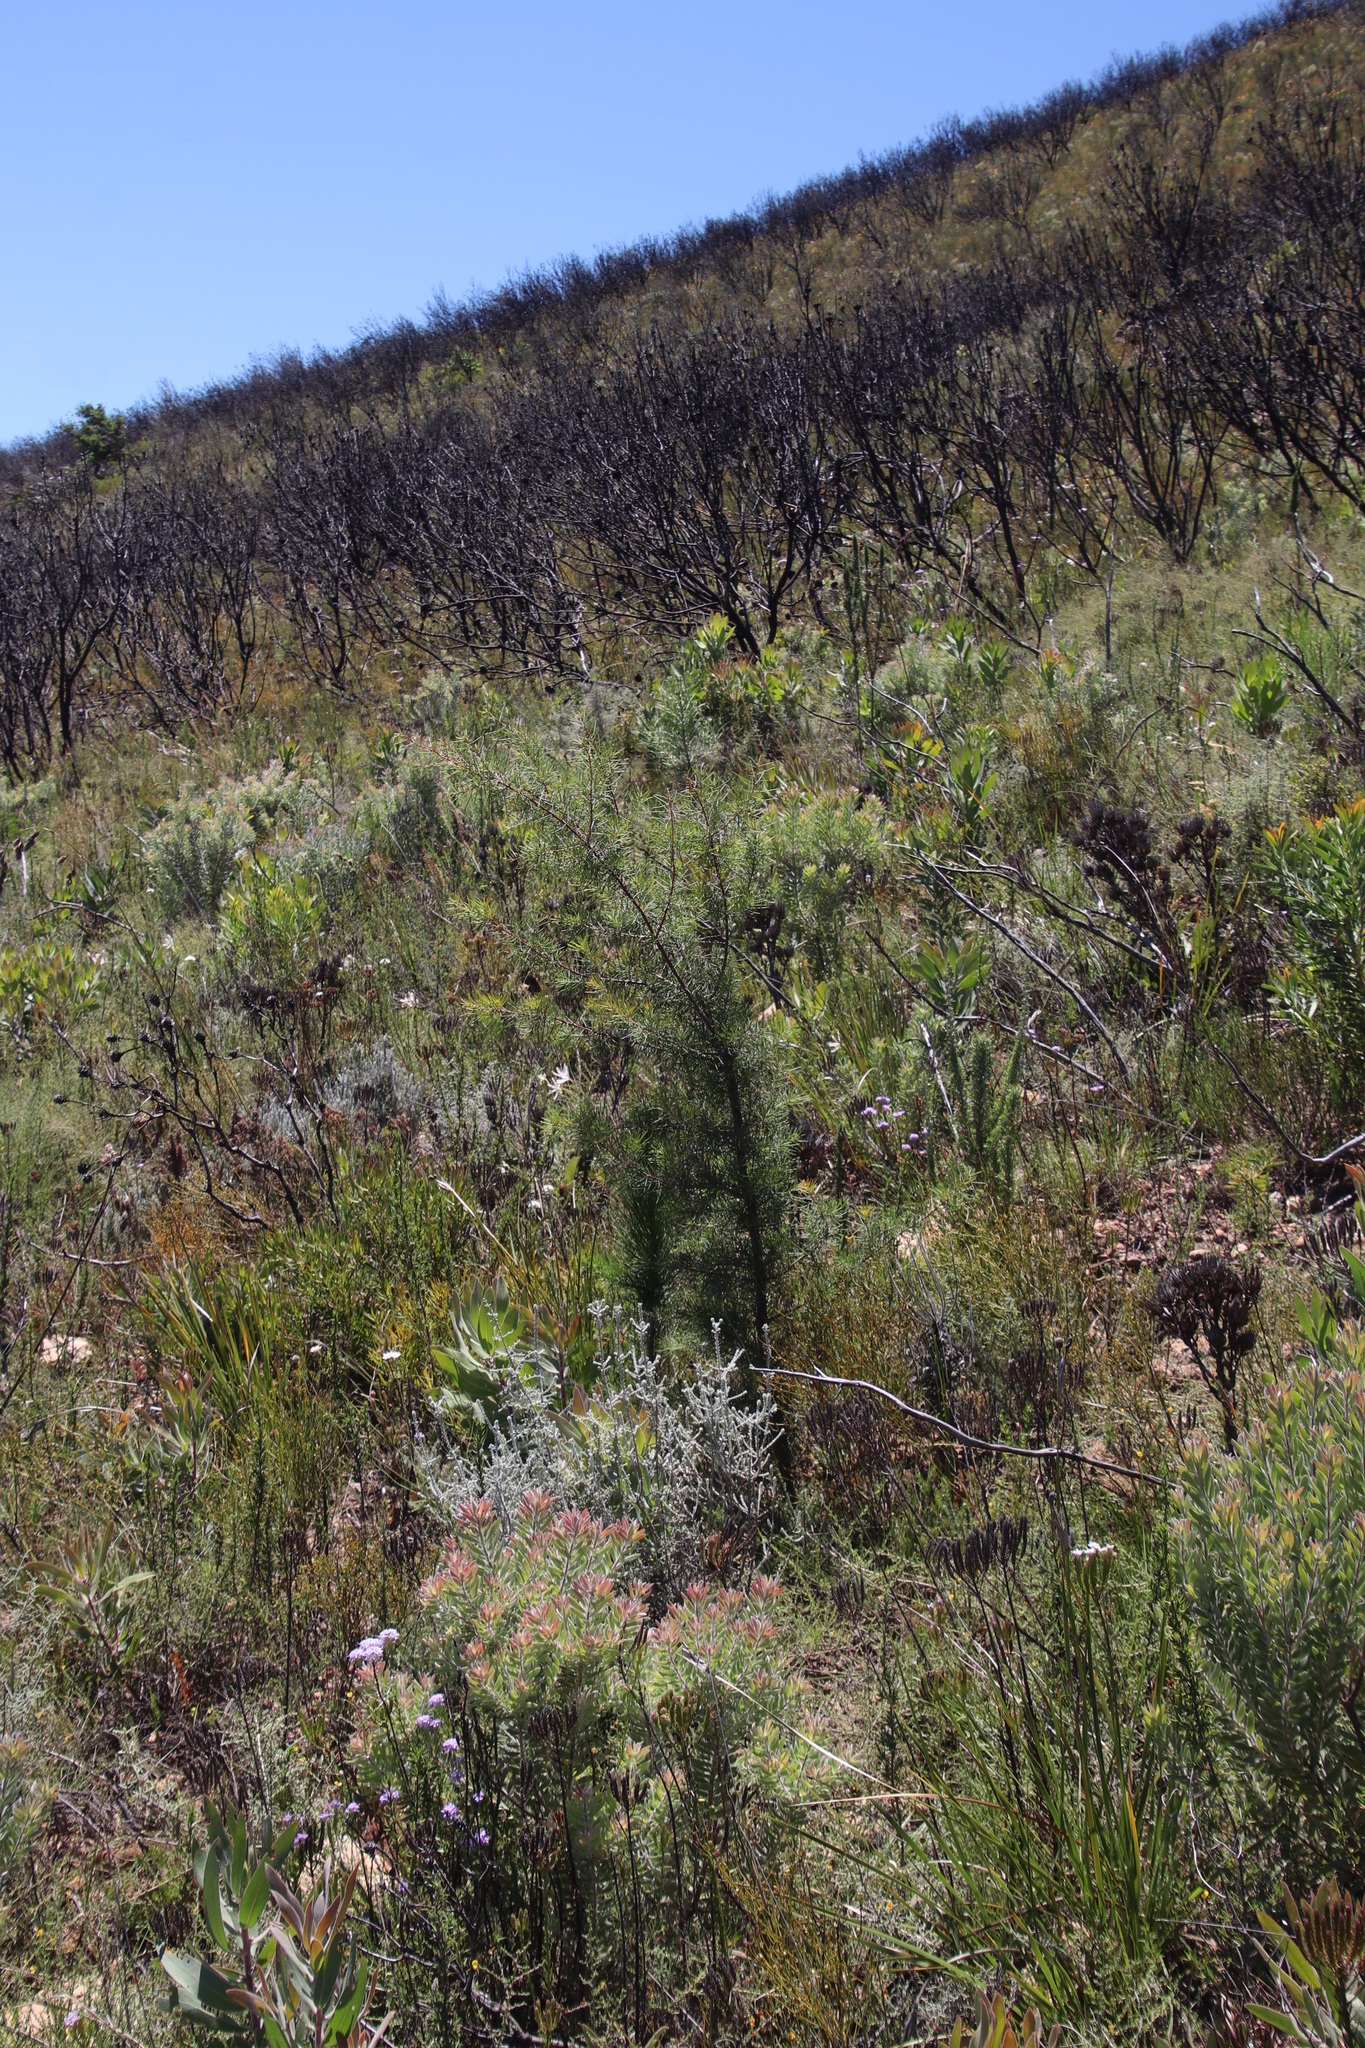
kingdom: Plantae
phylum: Tracheophyta
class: Magnoliopsida
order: Proteales
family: Proteaceae
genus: Hakea
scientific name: Hakea sericea
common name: Needle bush
